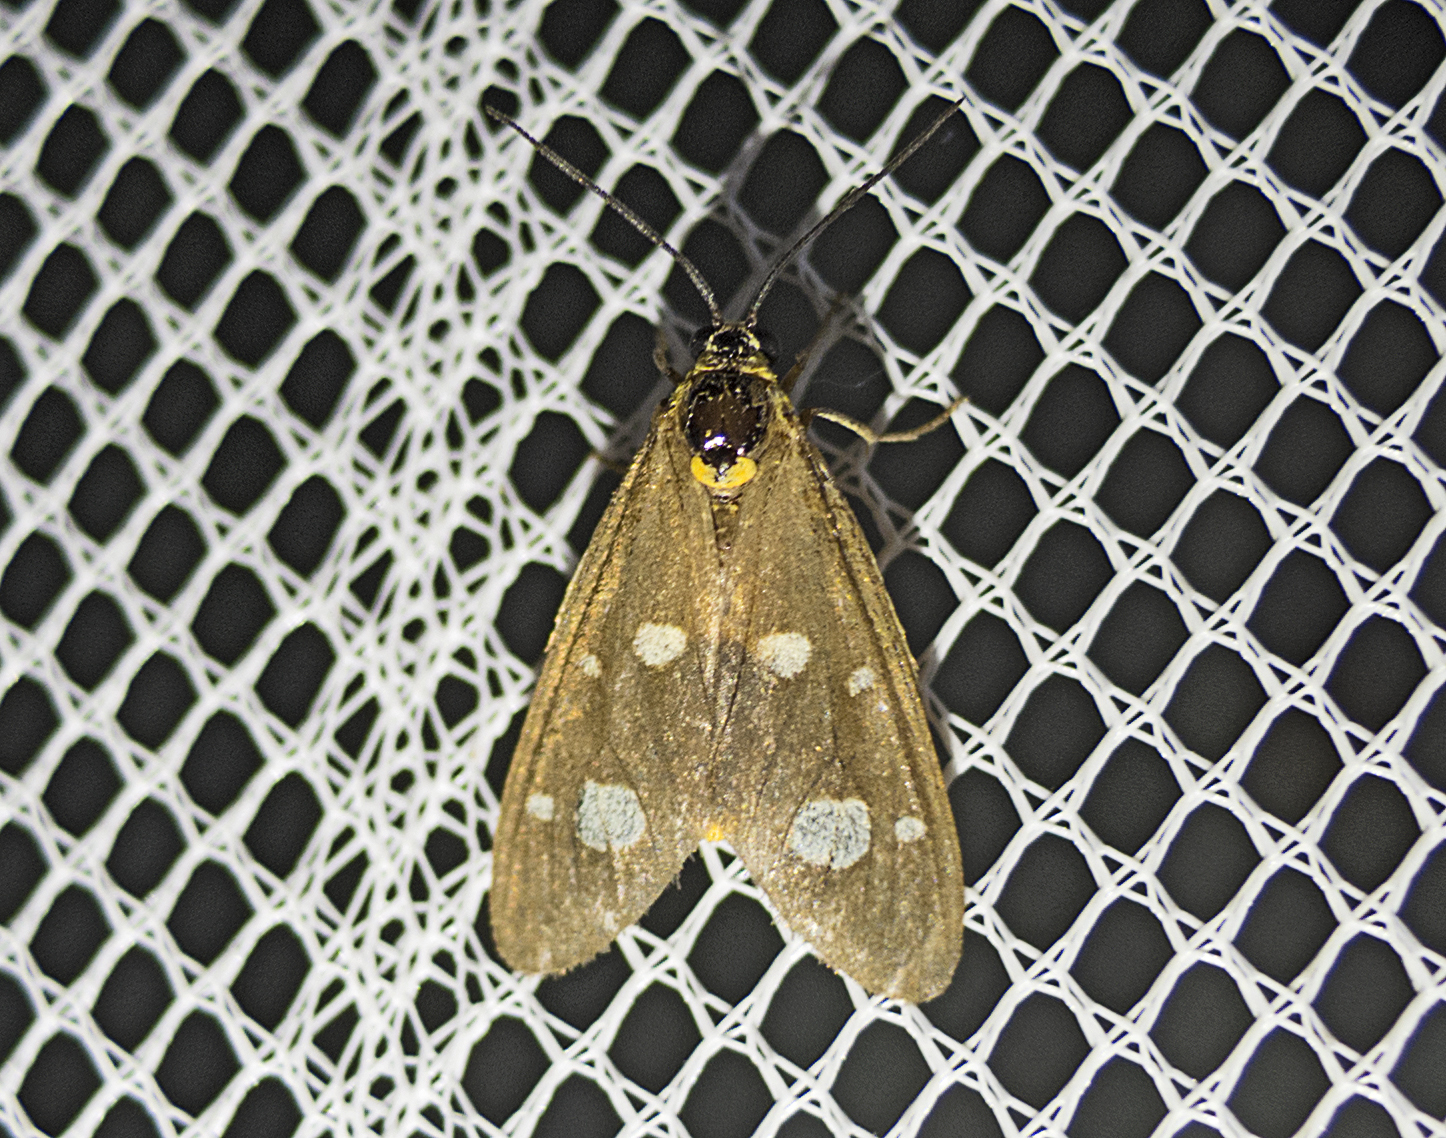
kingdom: Animalia
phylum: Arthropoda
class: Insecta
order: Lepidoptera
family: Erebidae
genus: Dysauxes
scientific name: Dysauxes punctata
